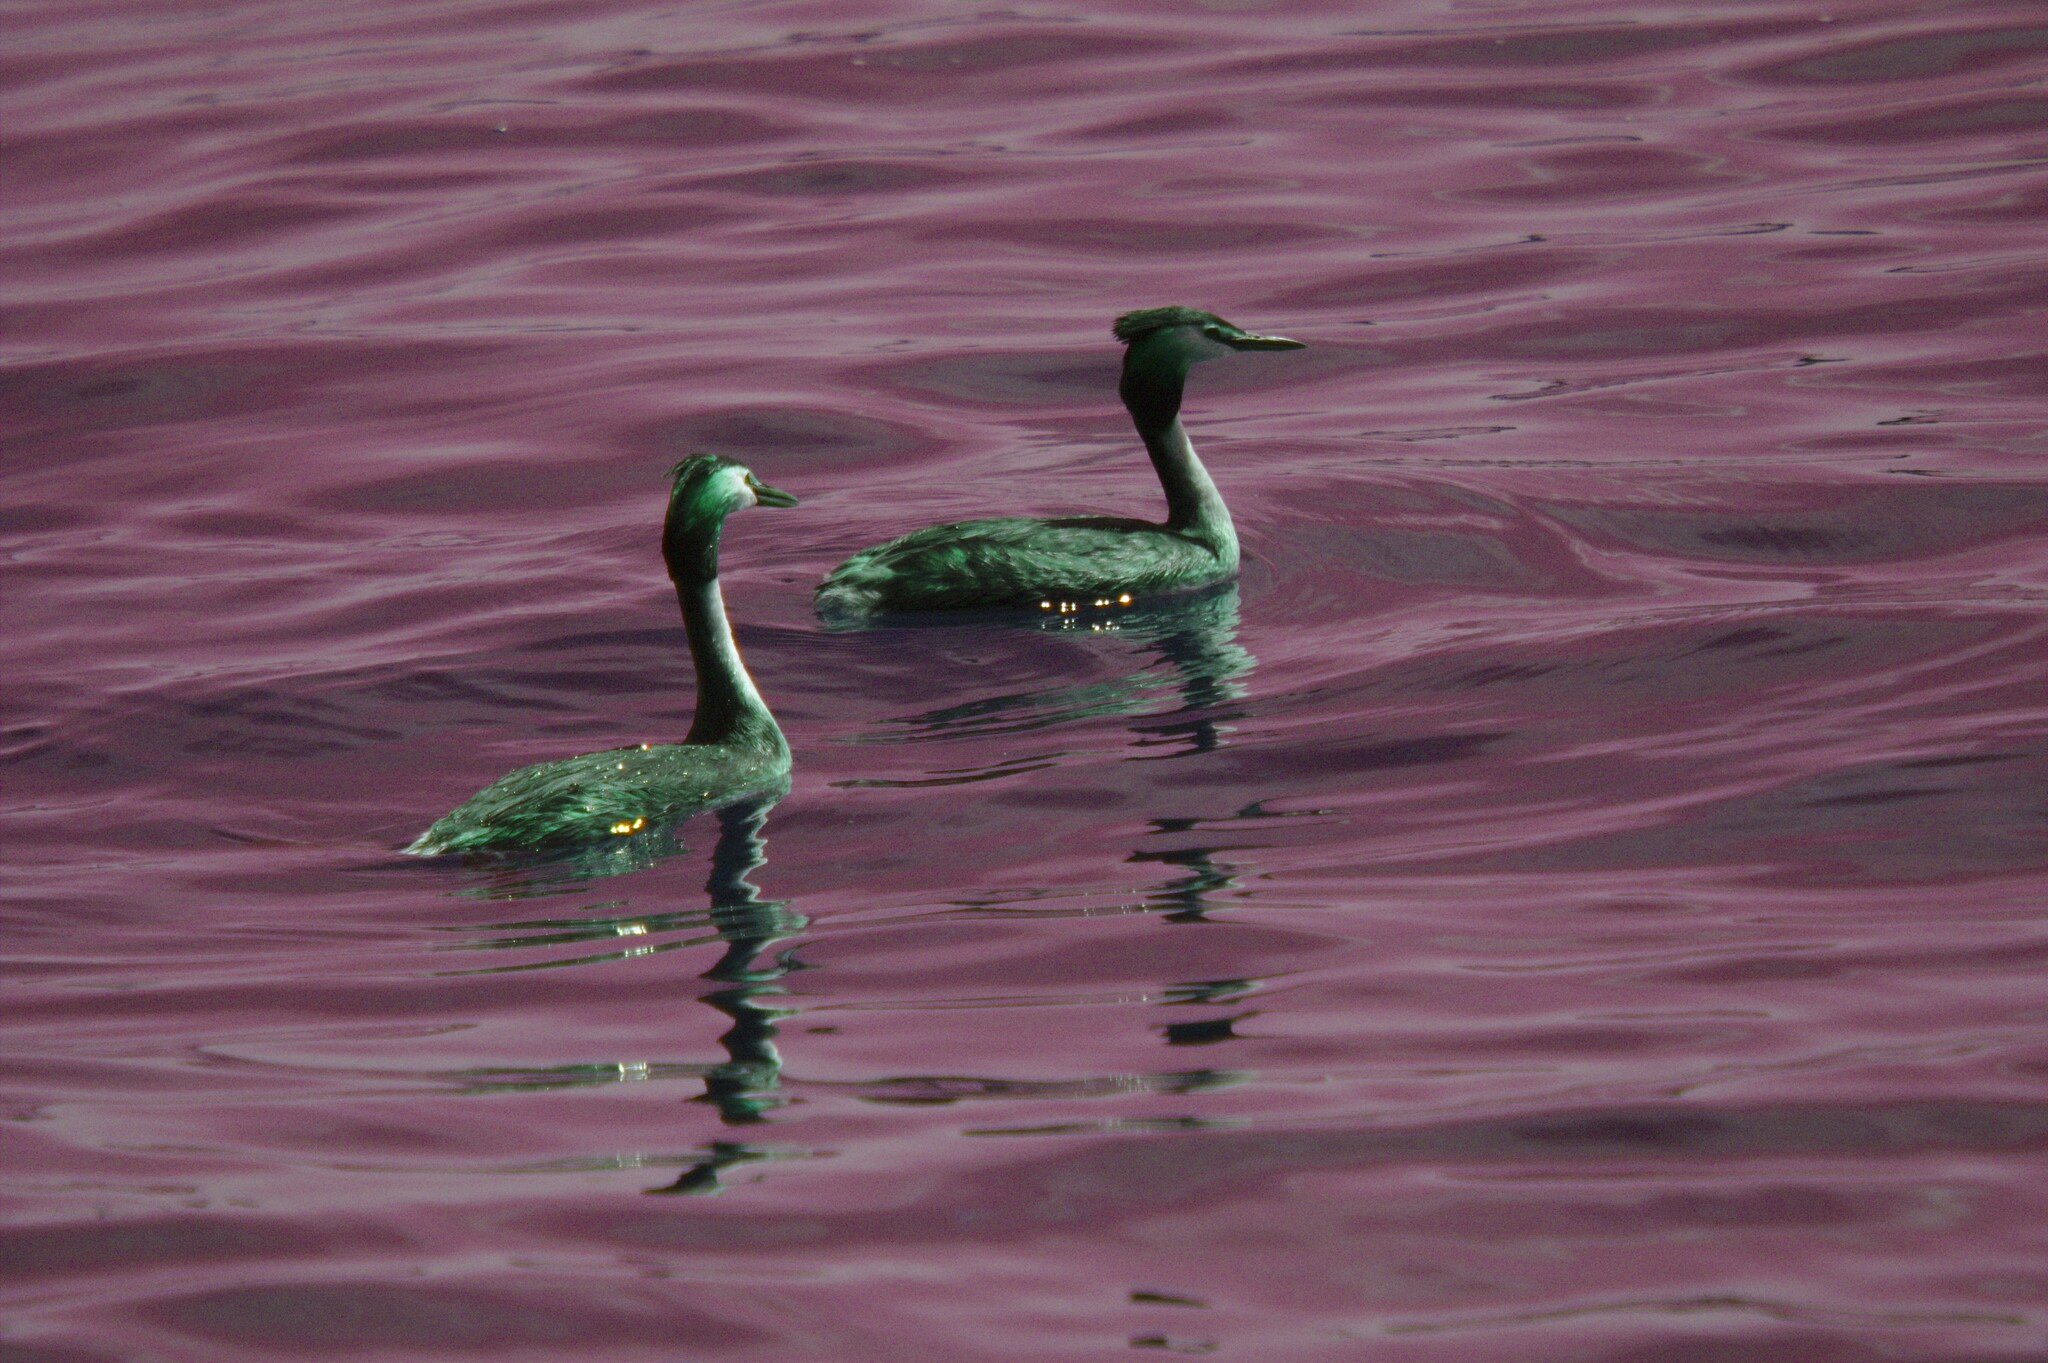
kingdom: Animalia
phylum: Chordata
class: Aves
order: Podicipediformes
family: Podicipedidae
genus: Podiceps
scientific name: Podiceps cristatus
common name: Great crested grebe
